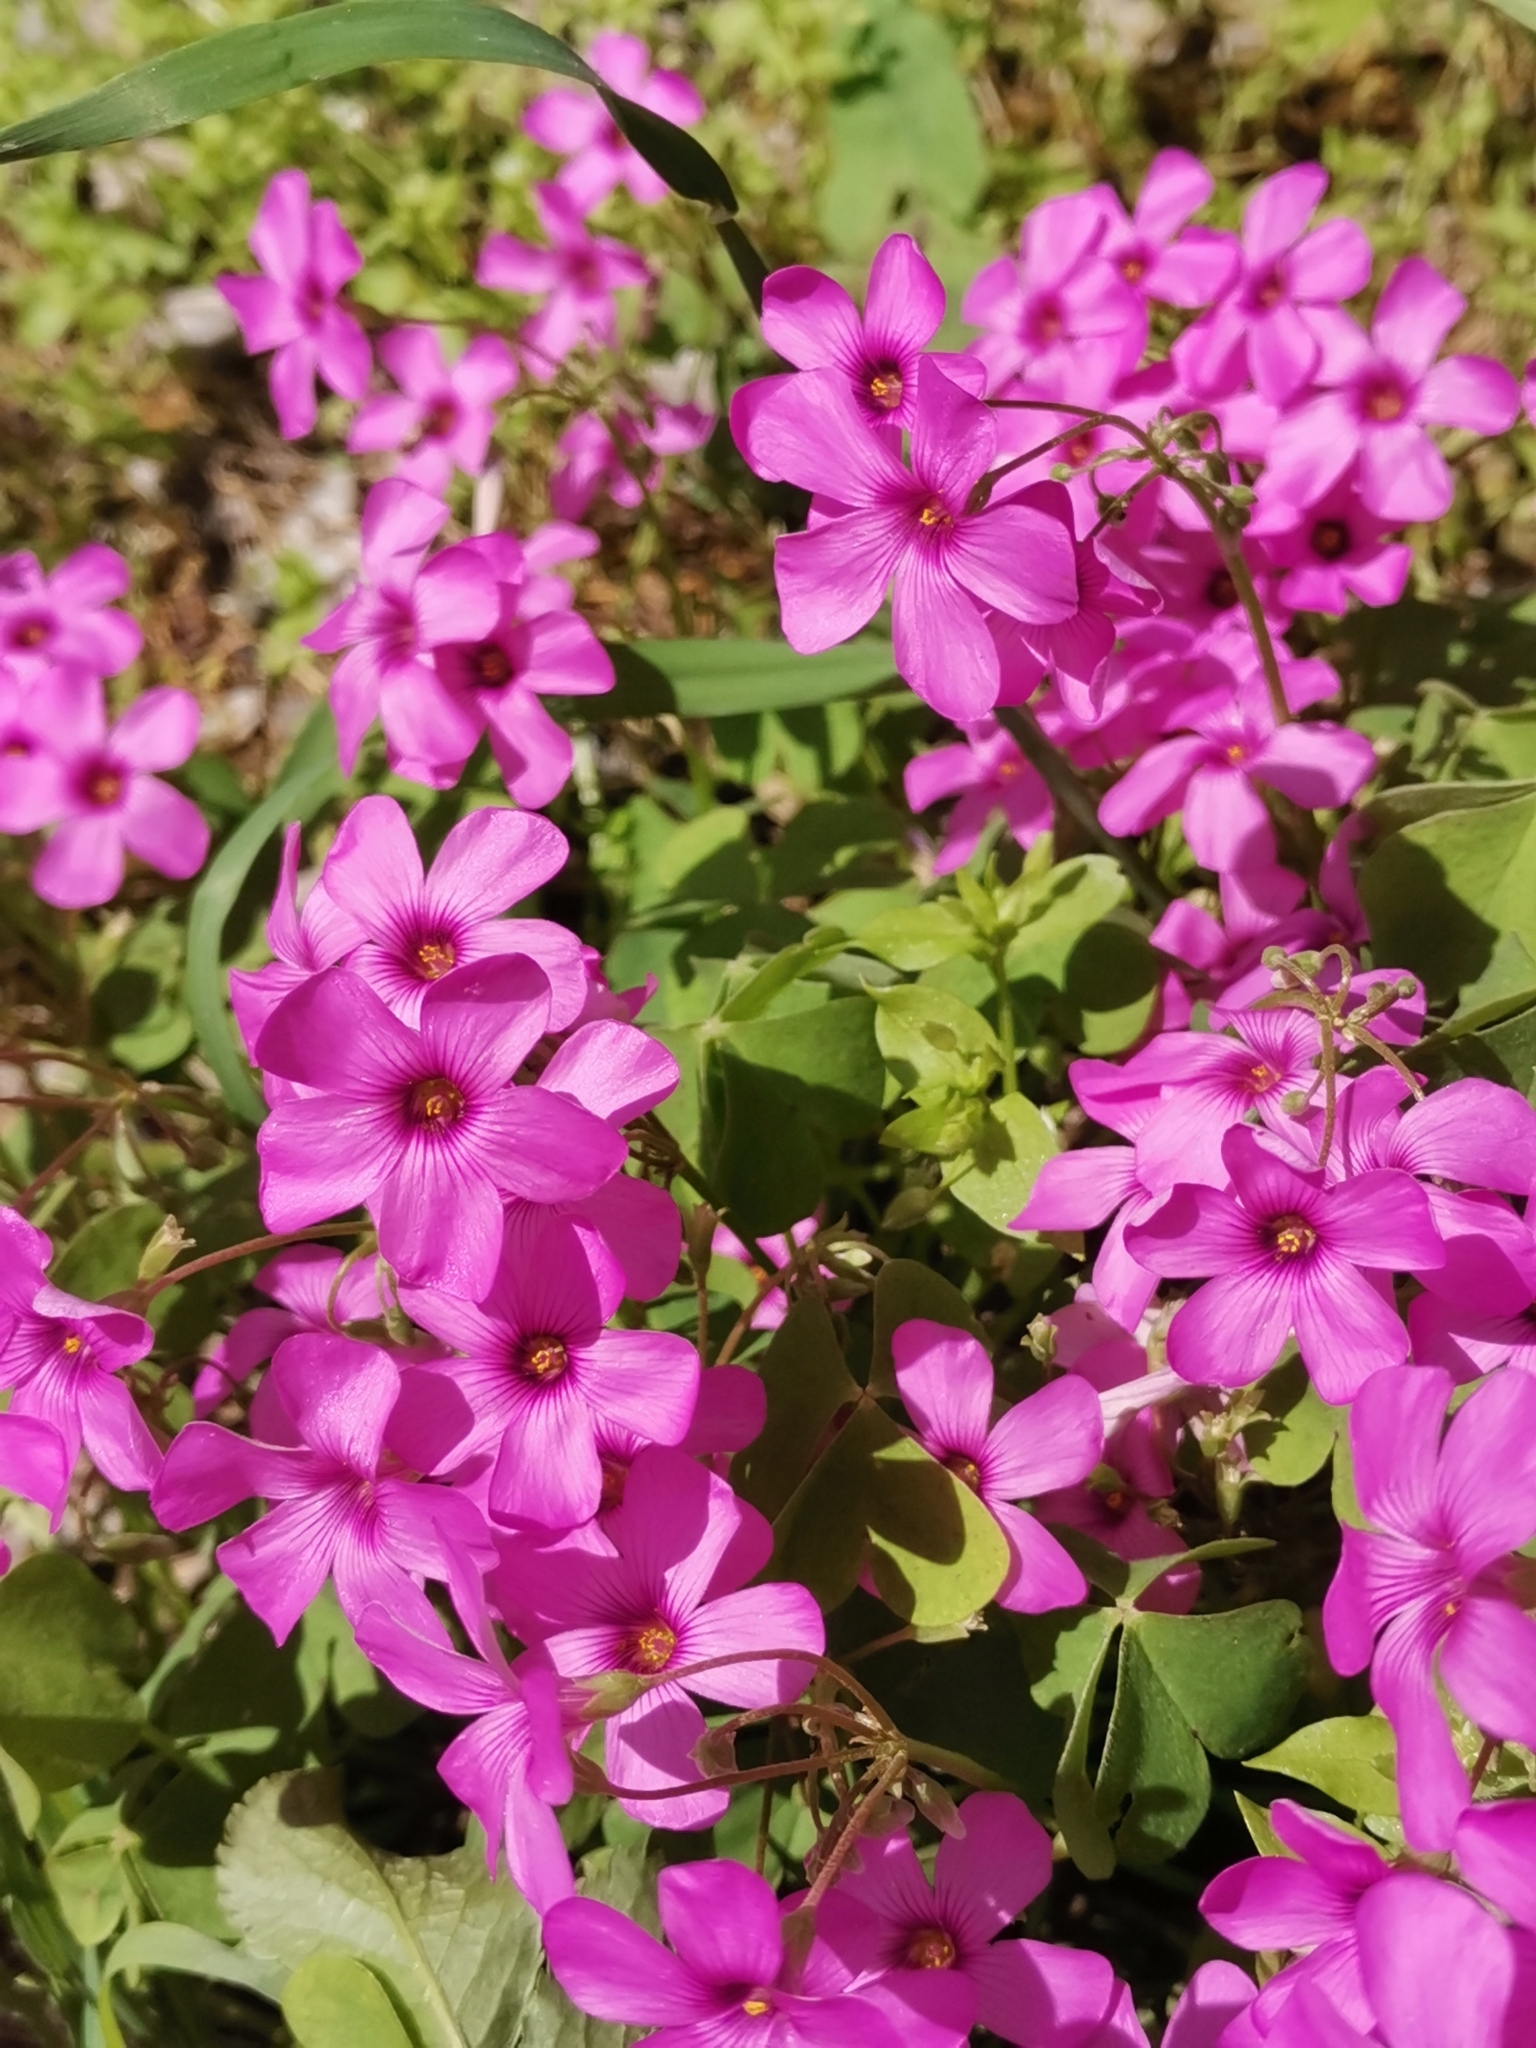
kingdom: Plantae
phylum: Tracheophyta
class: Magnoliopsida
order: Oxalidales
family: Oxalidaceae
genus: Oxalis
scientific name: Oxalis articulata
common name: Pink-sorrel
